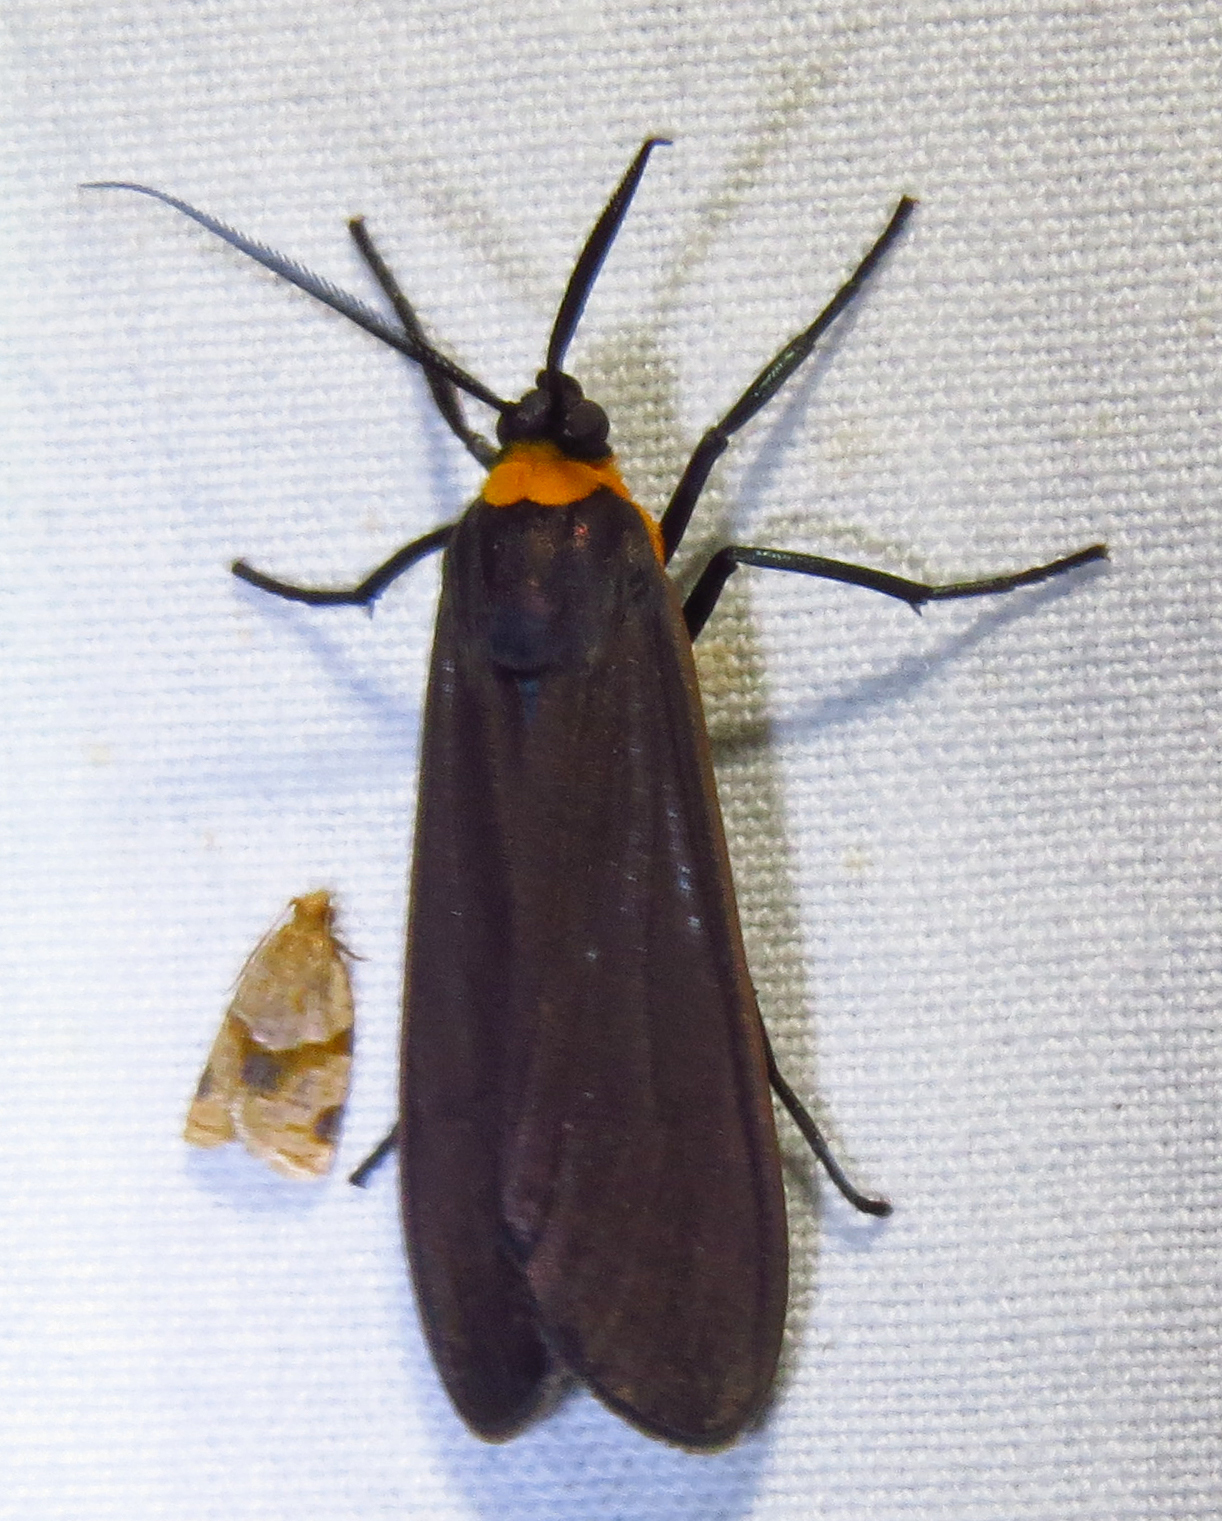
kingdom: Animalia
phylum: Arthropoda
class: Insecta
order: Lepidoptera
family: Erebidae
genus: Cisseps
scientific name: Cisseps fulvicollis
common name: Yellow-collared scape moth
